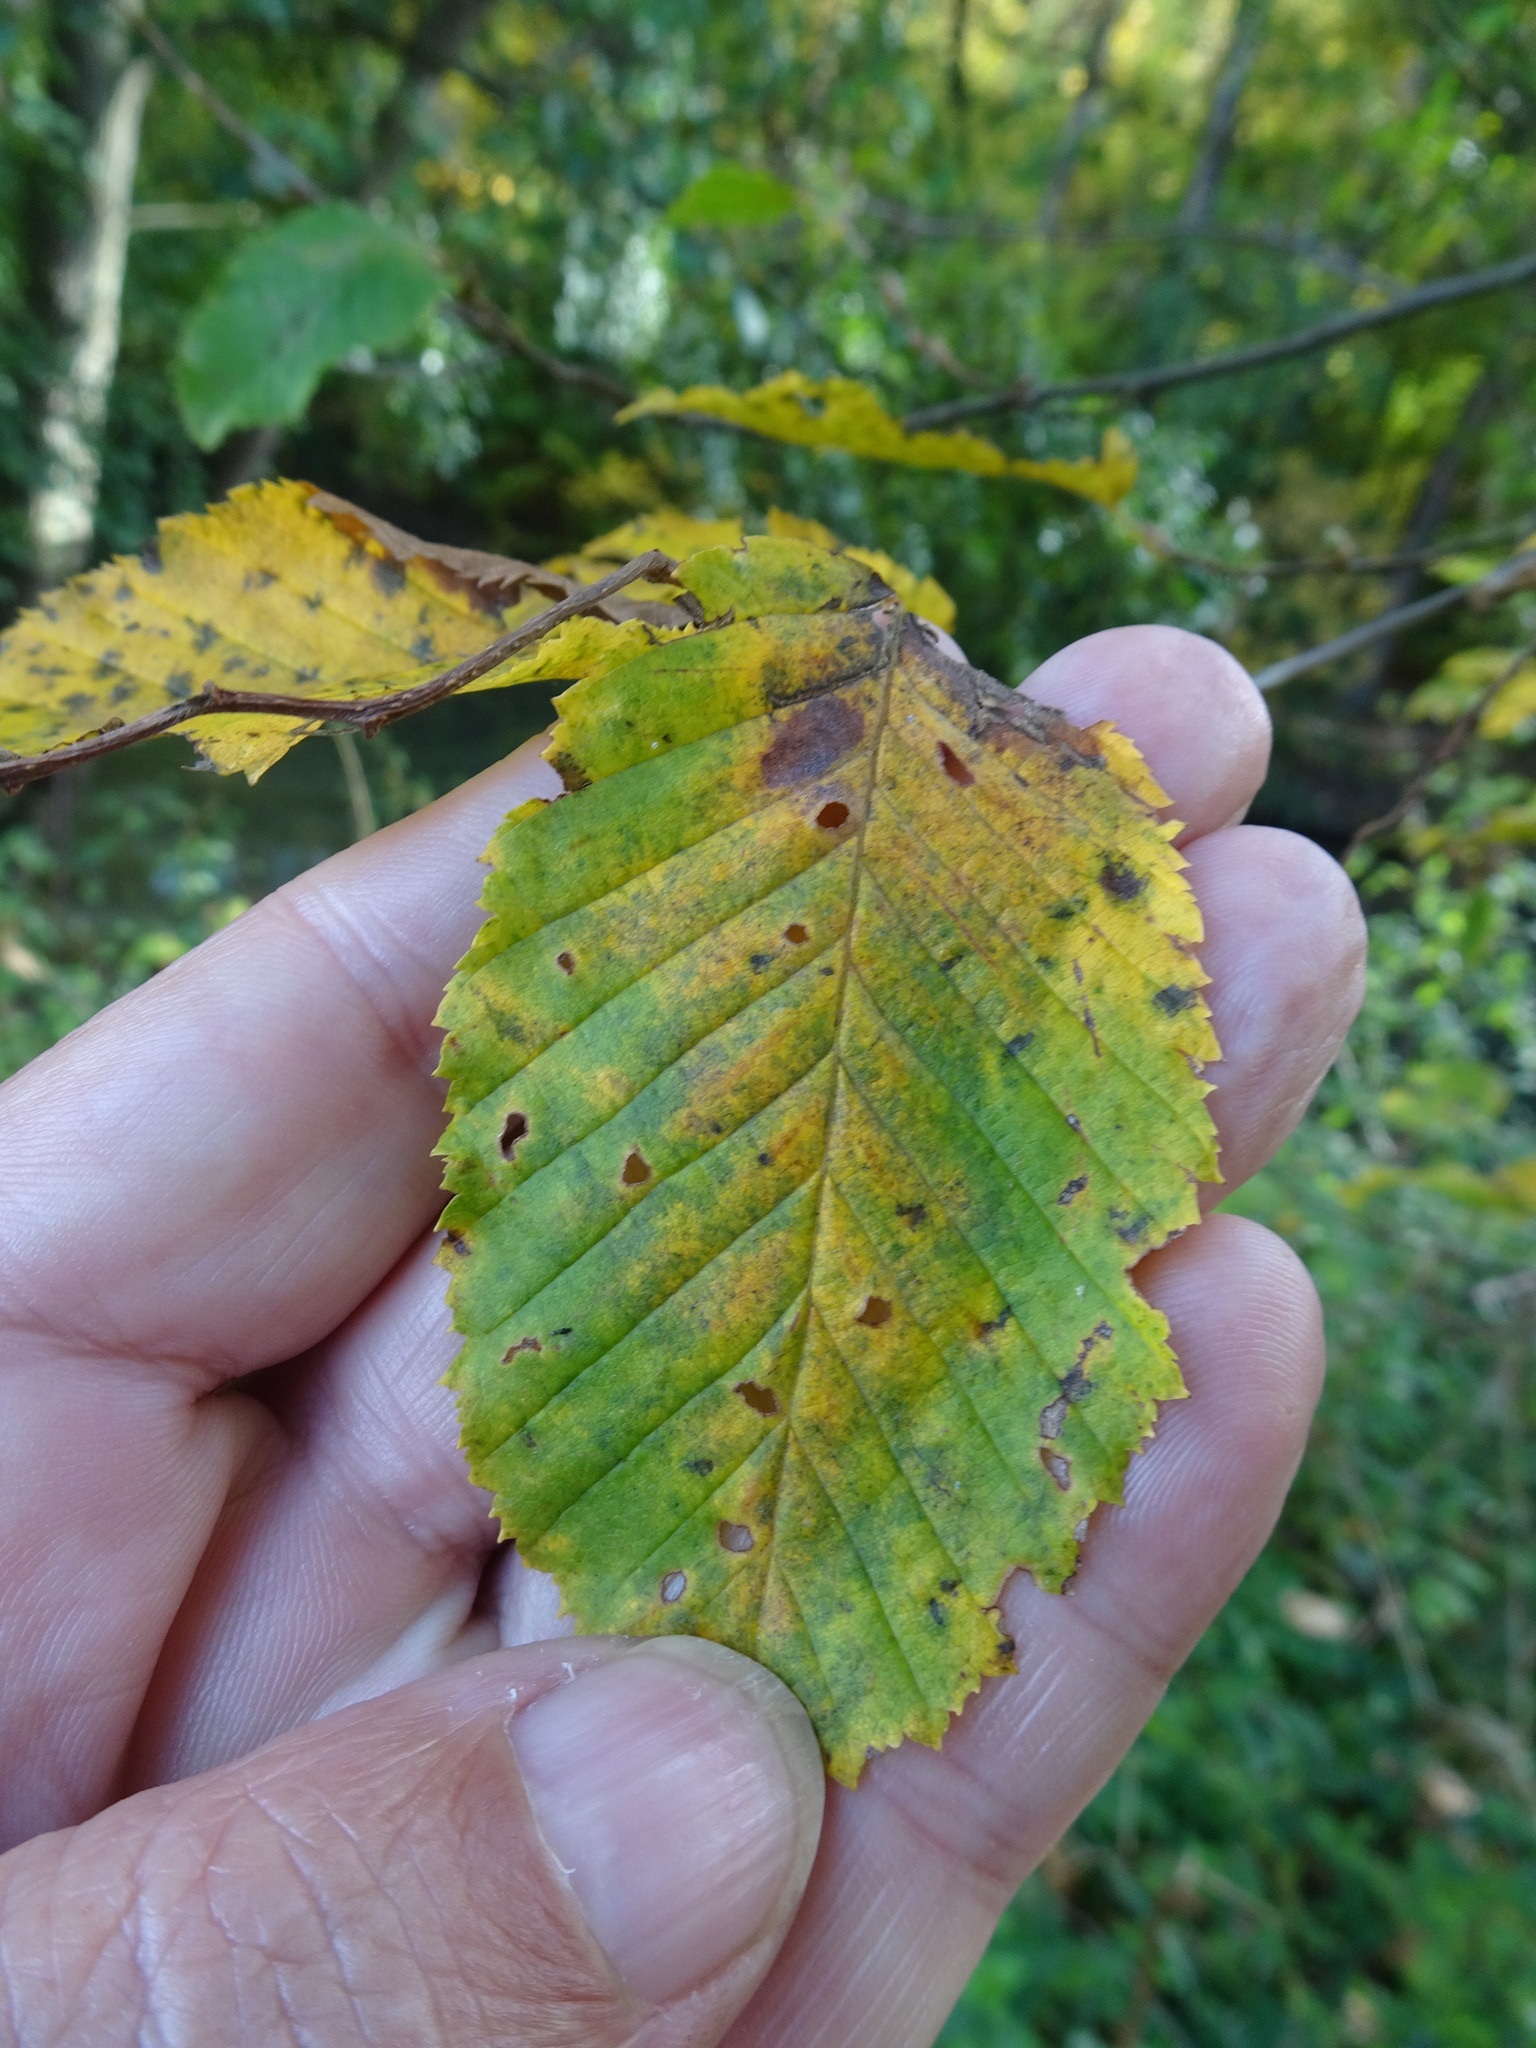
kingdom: Plantae
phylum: Tracheophyta
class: Magnoliopsida
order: Fagales
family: Betulaceae
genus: Carpinus
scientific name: Carpinus betulus
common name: Hornbeam
